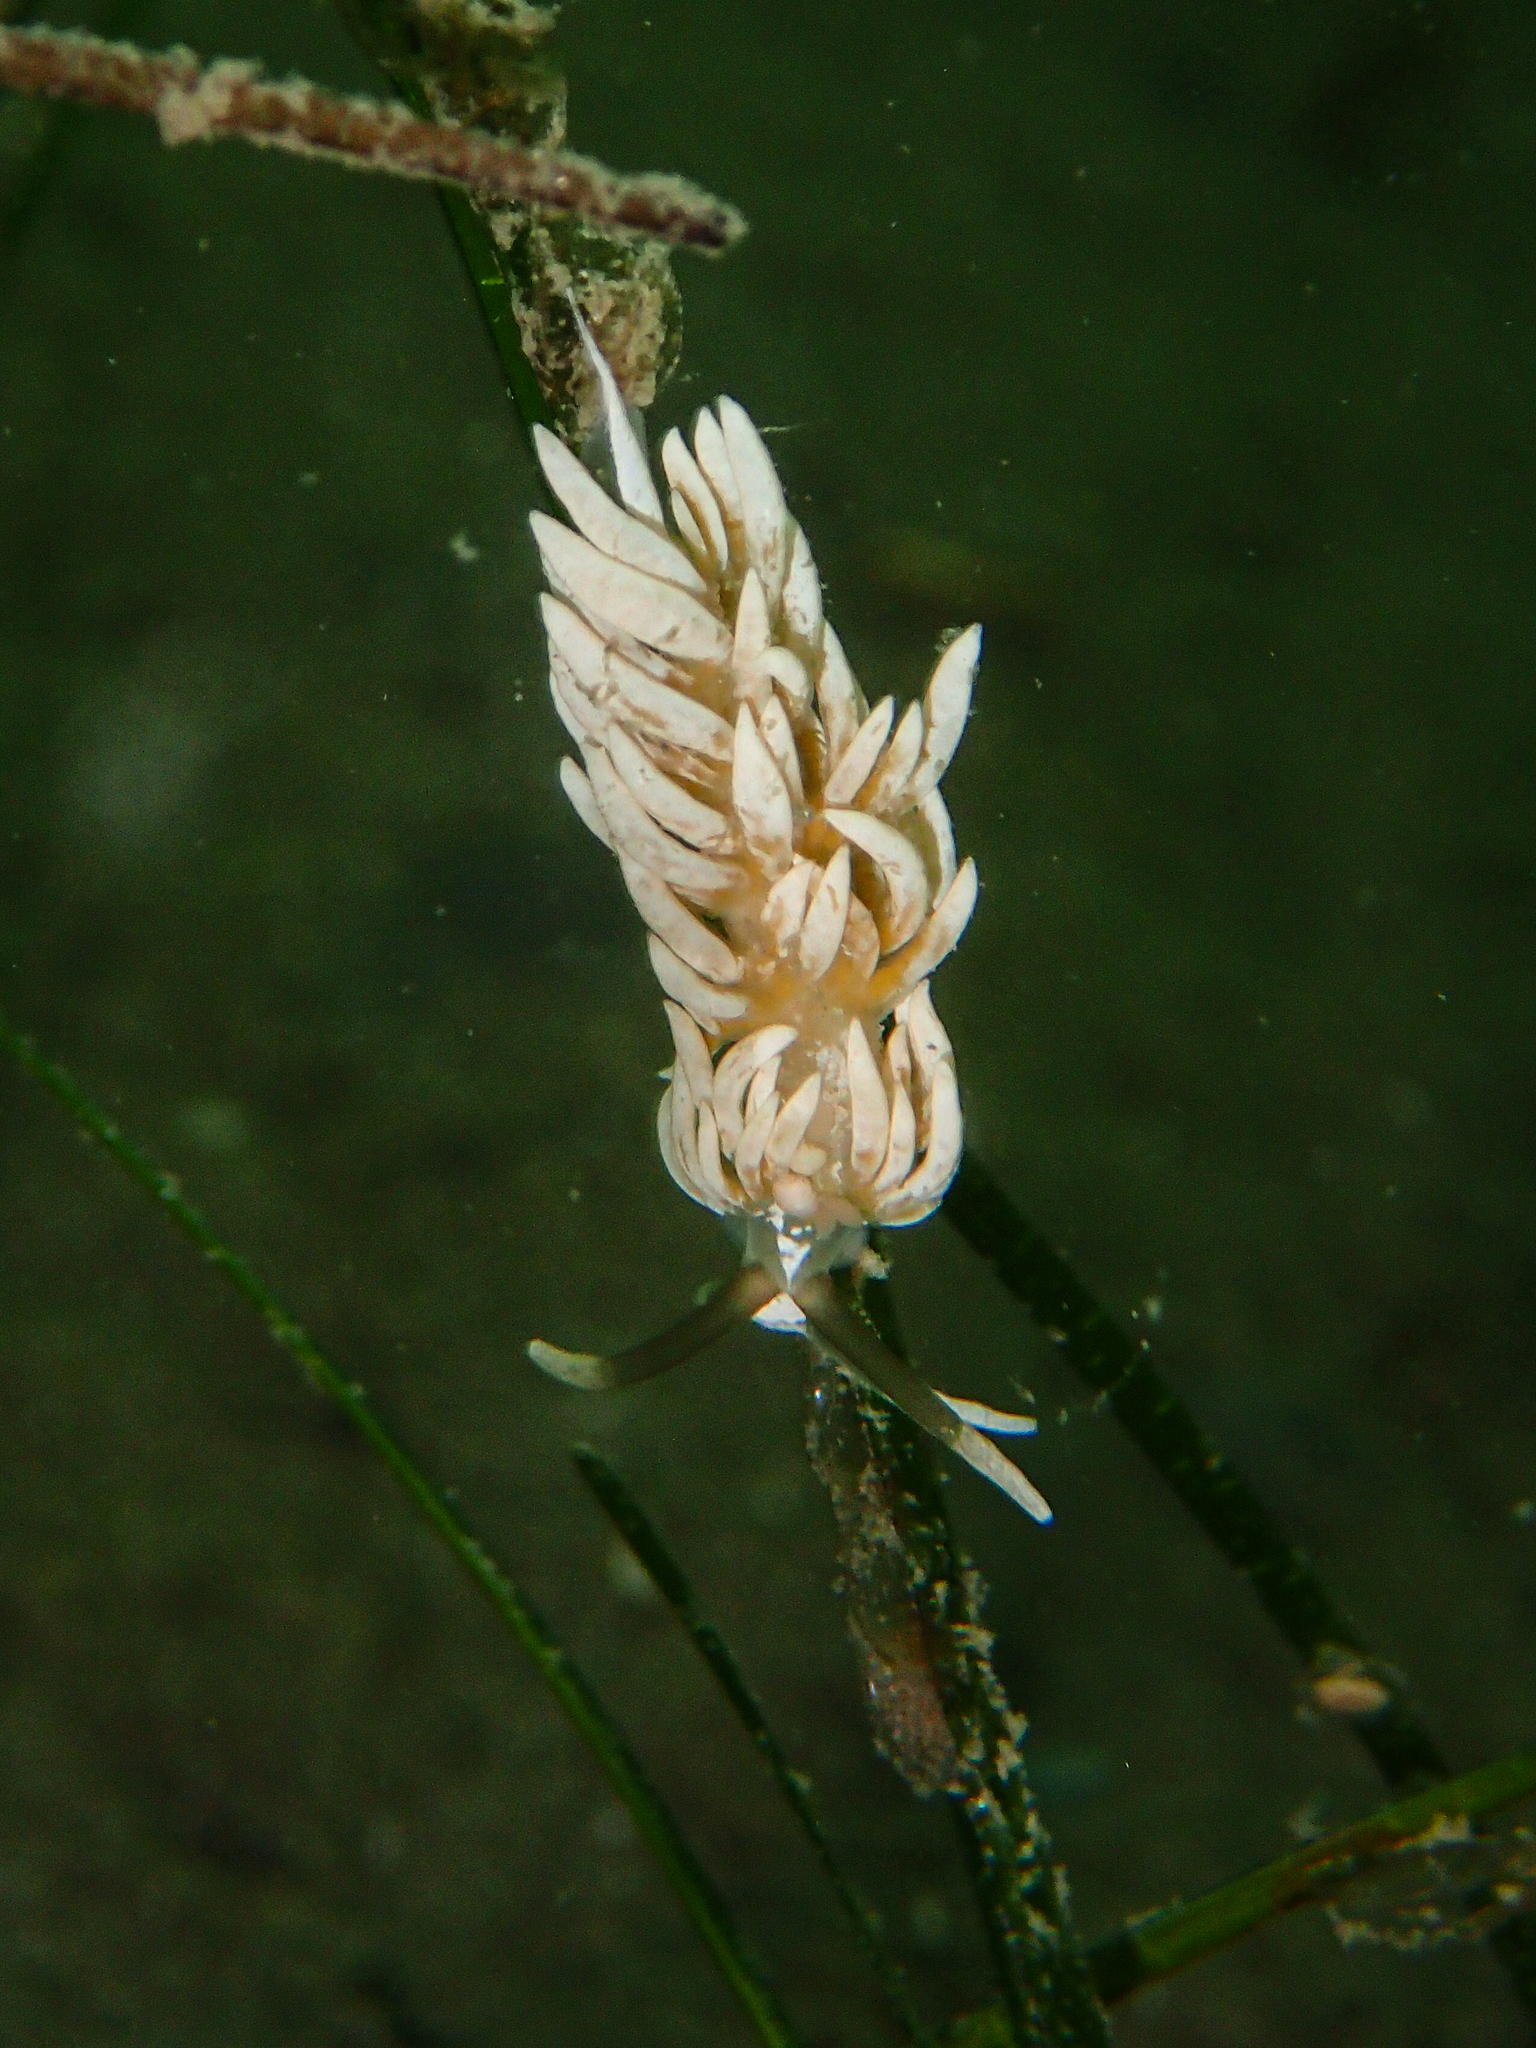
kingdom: Animalia
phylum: Mollusca
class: Gastropoda
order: Nudibranchia
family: Facelinidae
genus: Favorinus
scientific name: Favorinus branchialis
